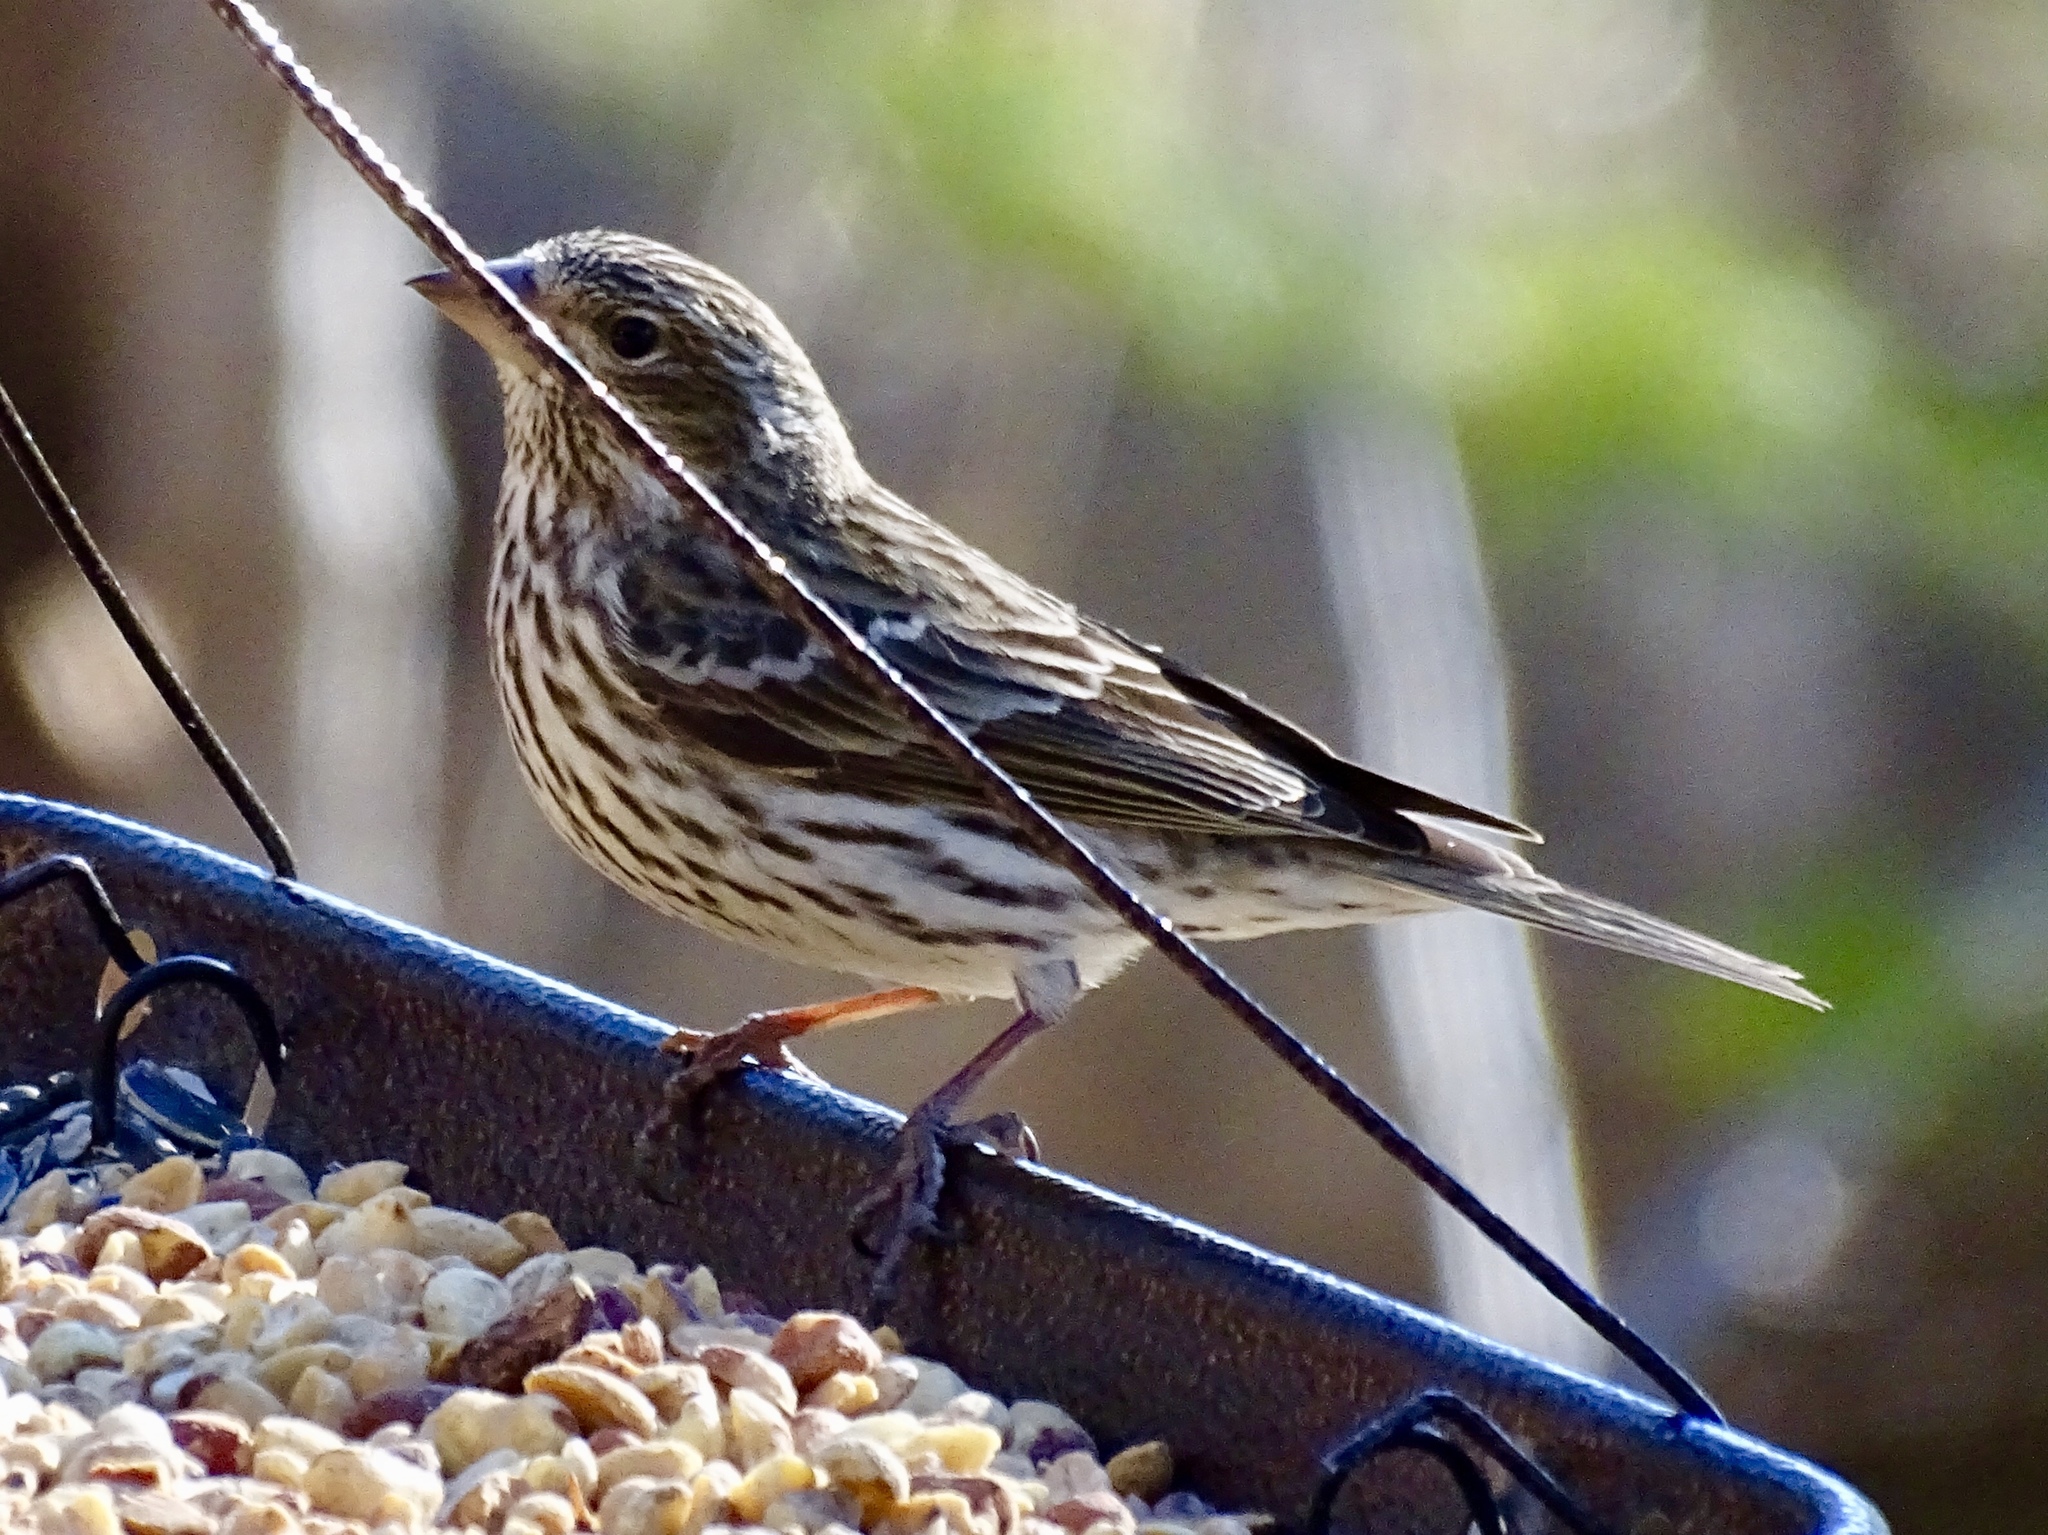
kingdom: Animalia
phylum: Chordata
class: Aves
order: Passeriformes
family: Fringillidae
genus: Haemorhous
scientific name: Haemorhous cassinii
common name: Cassin's finch
